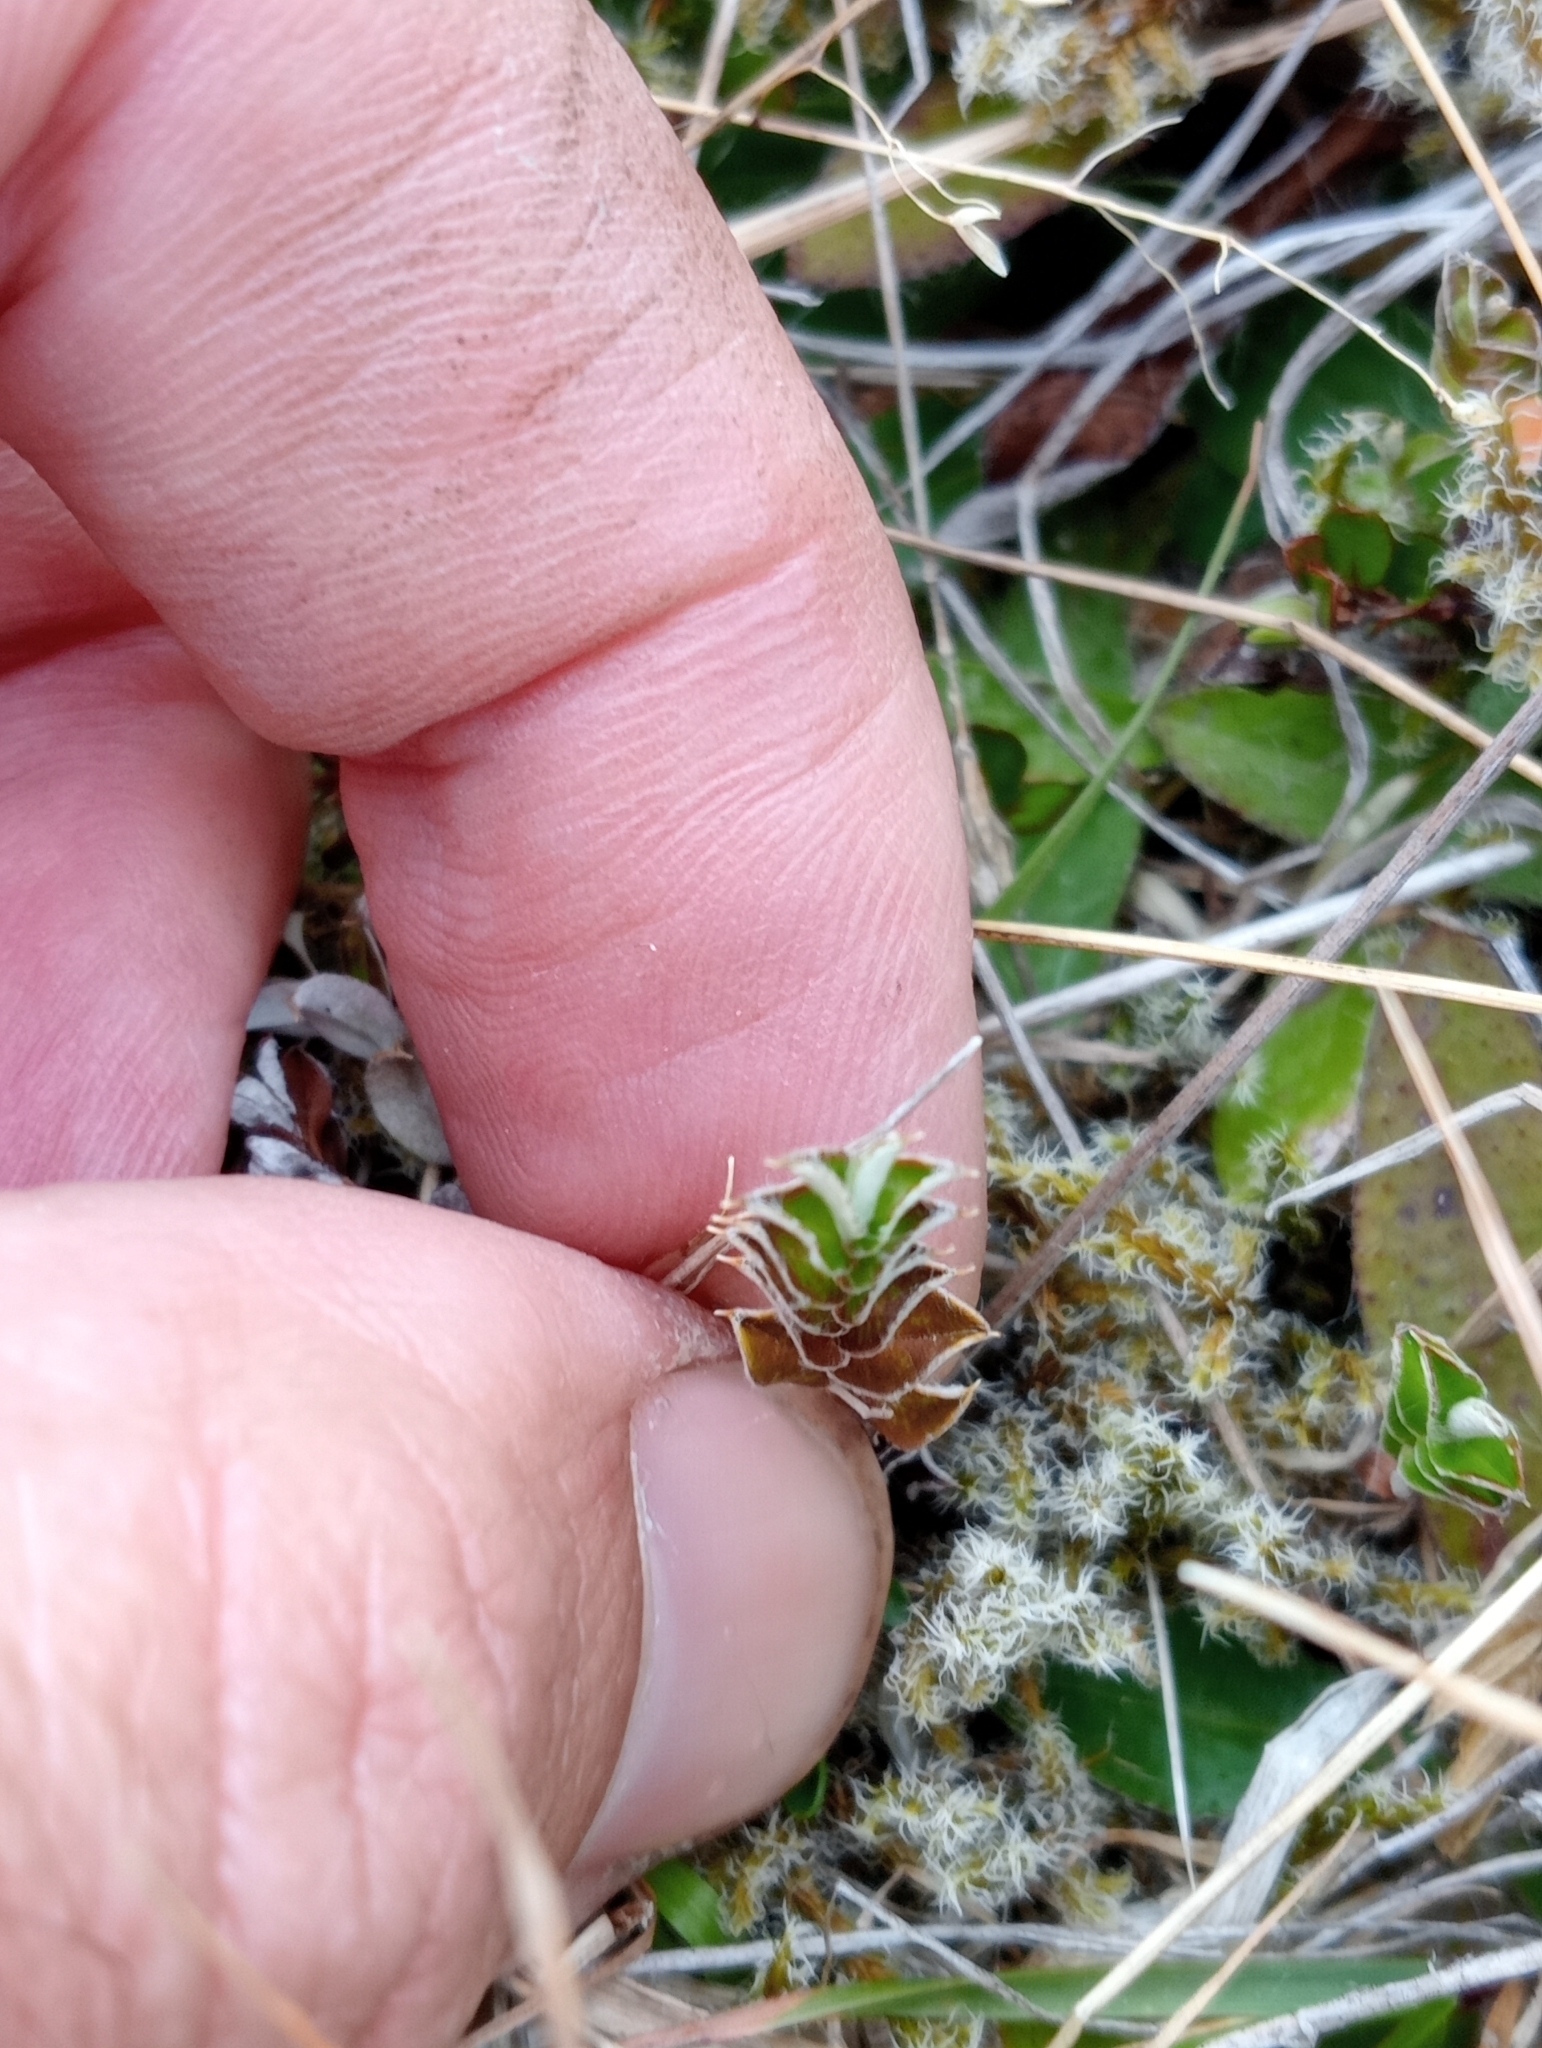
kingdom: Plantae
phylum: Tracheophyta
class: Magnoliopsida
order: Asterales
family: Asteraceae
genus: Helichrysum
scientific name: Helichrysum filicaule
